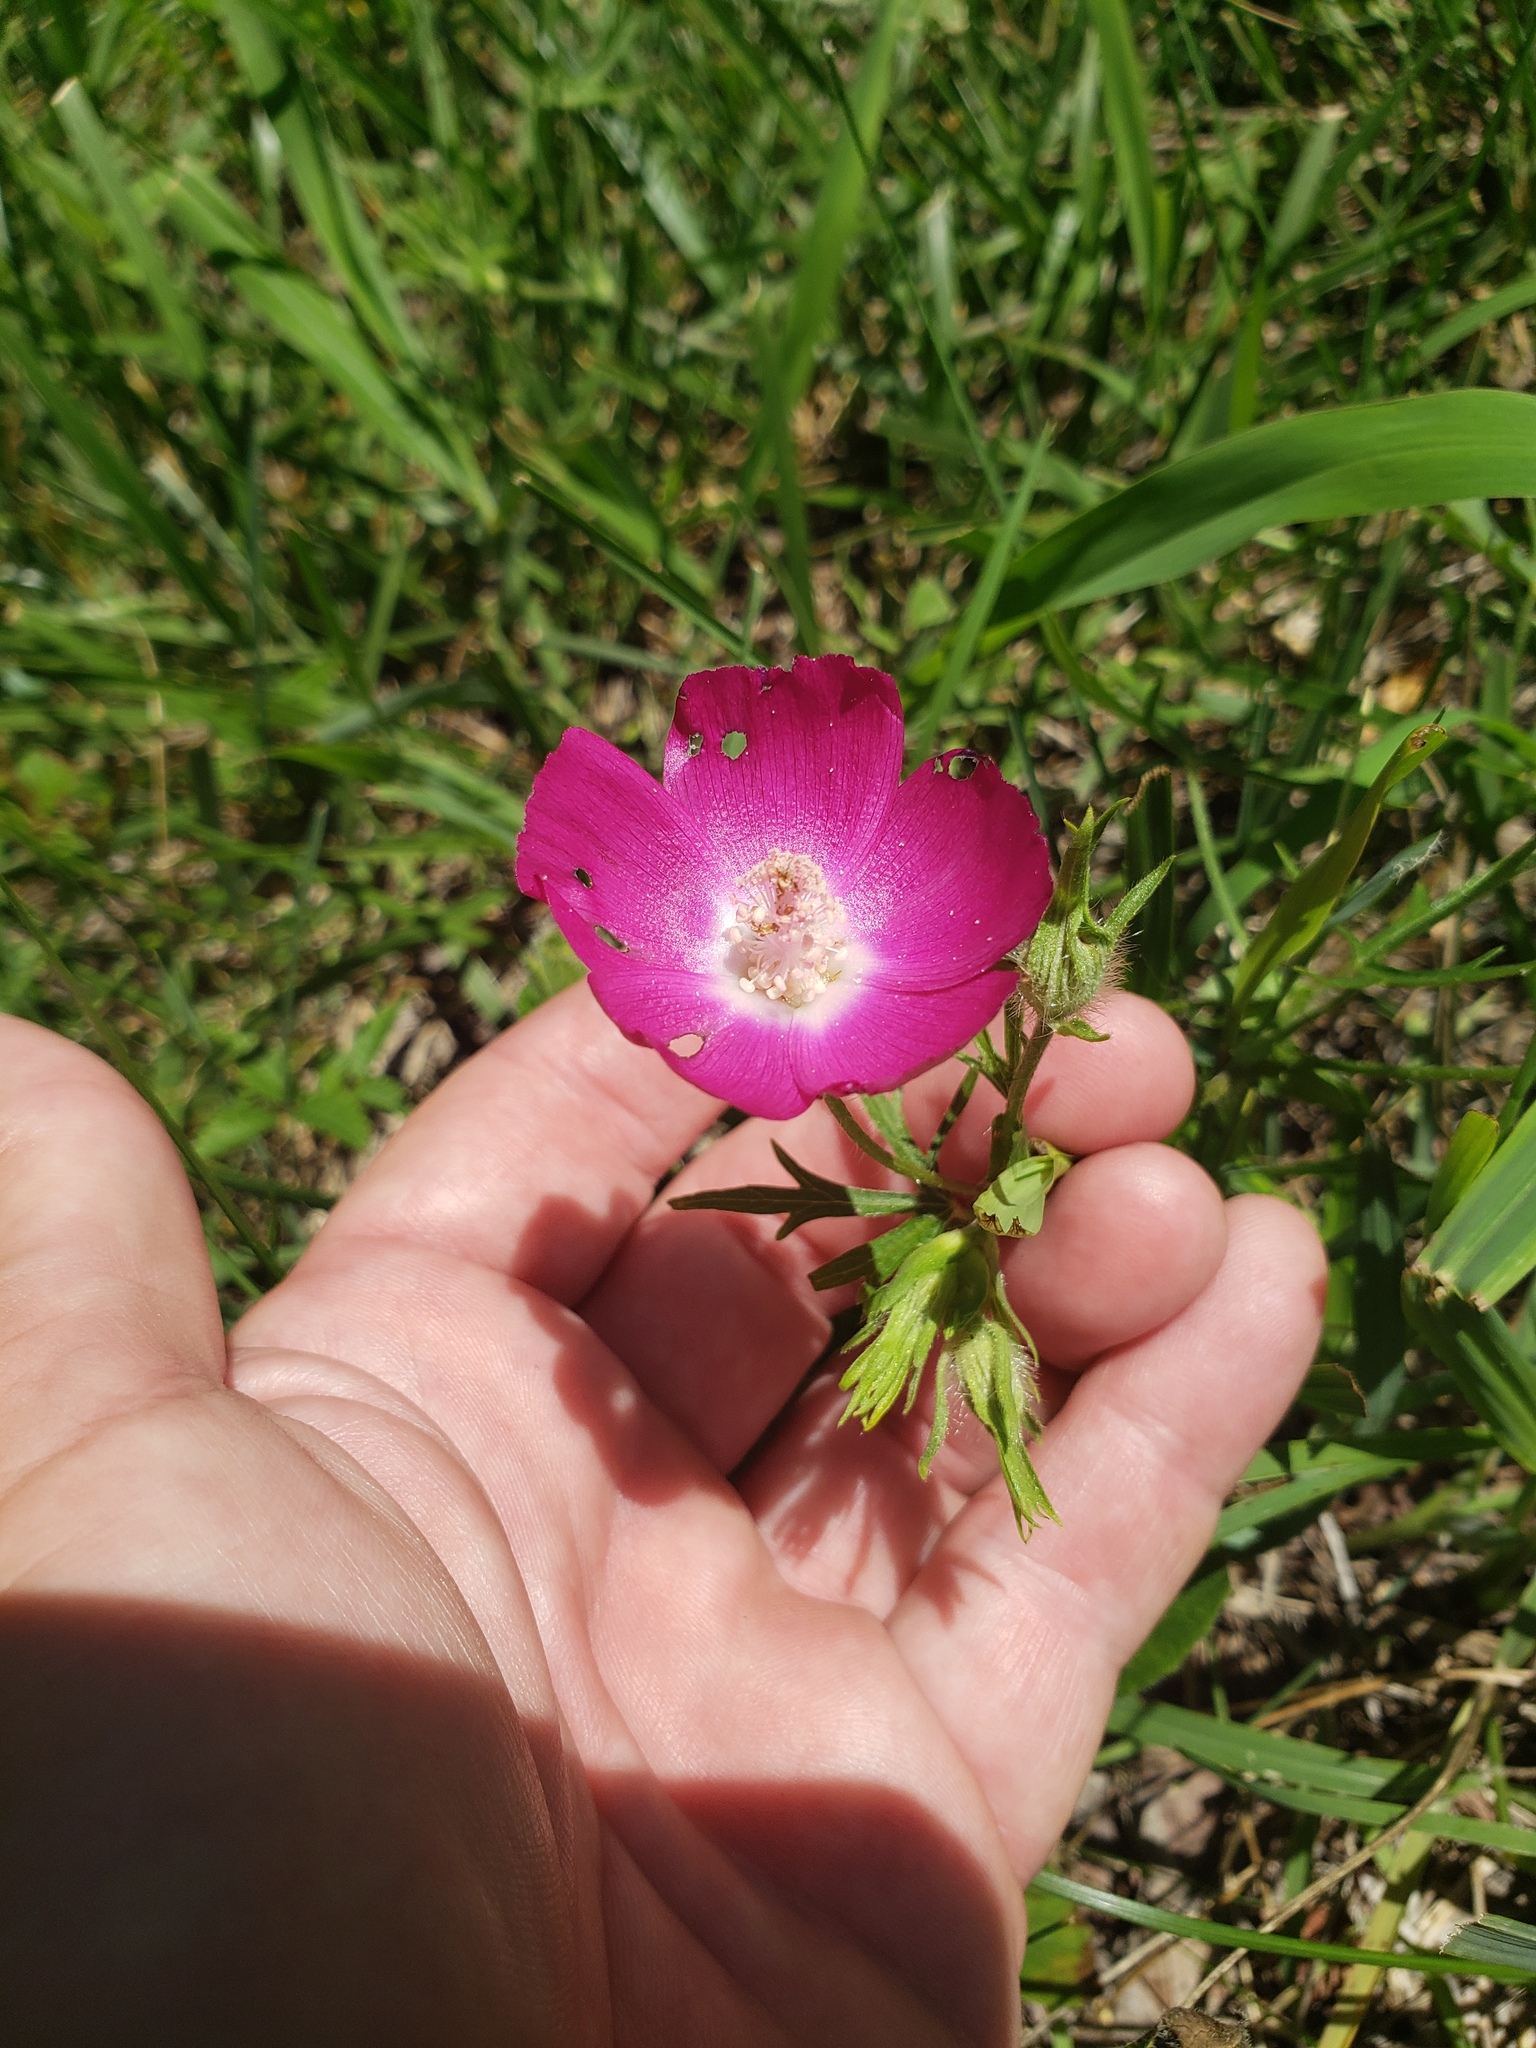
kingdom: Plantae
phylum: Tracheophyta
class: Magnoliopsida
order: Malvales
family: Malvaceae
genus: Callirhoe
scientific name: Callirhoe involucrata
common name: Purple poppy-mallow
